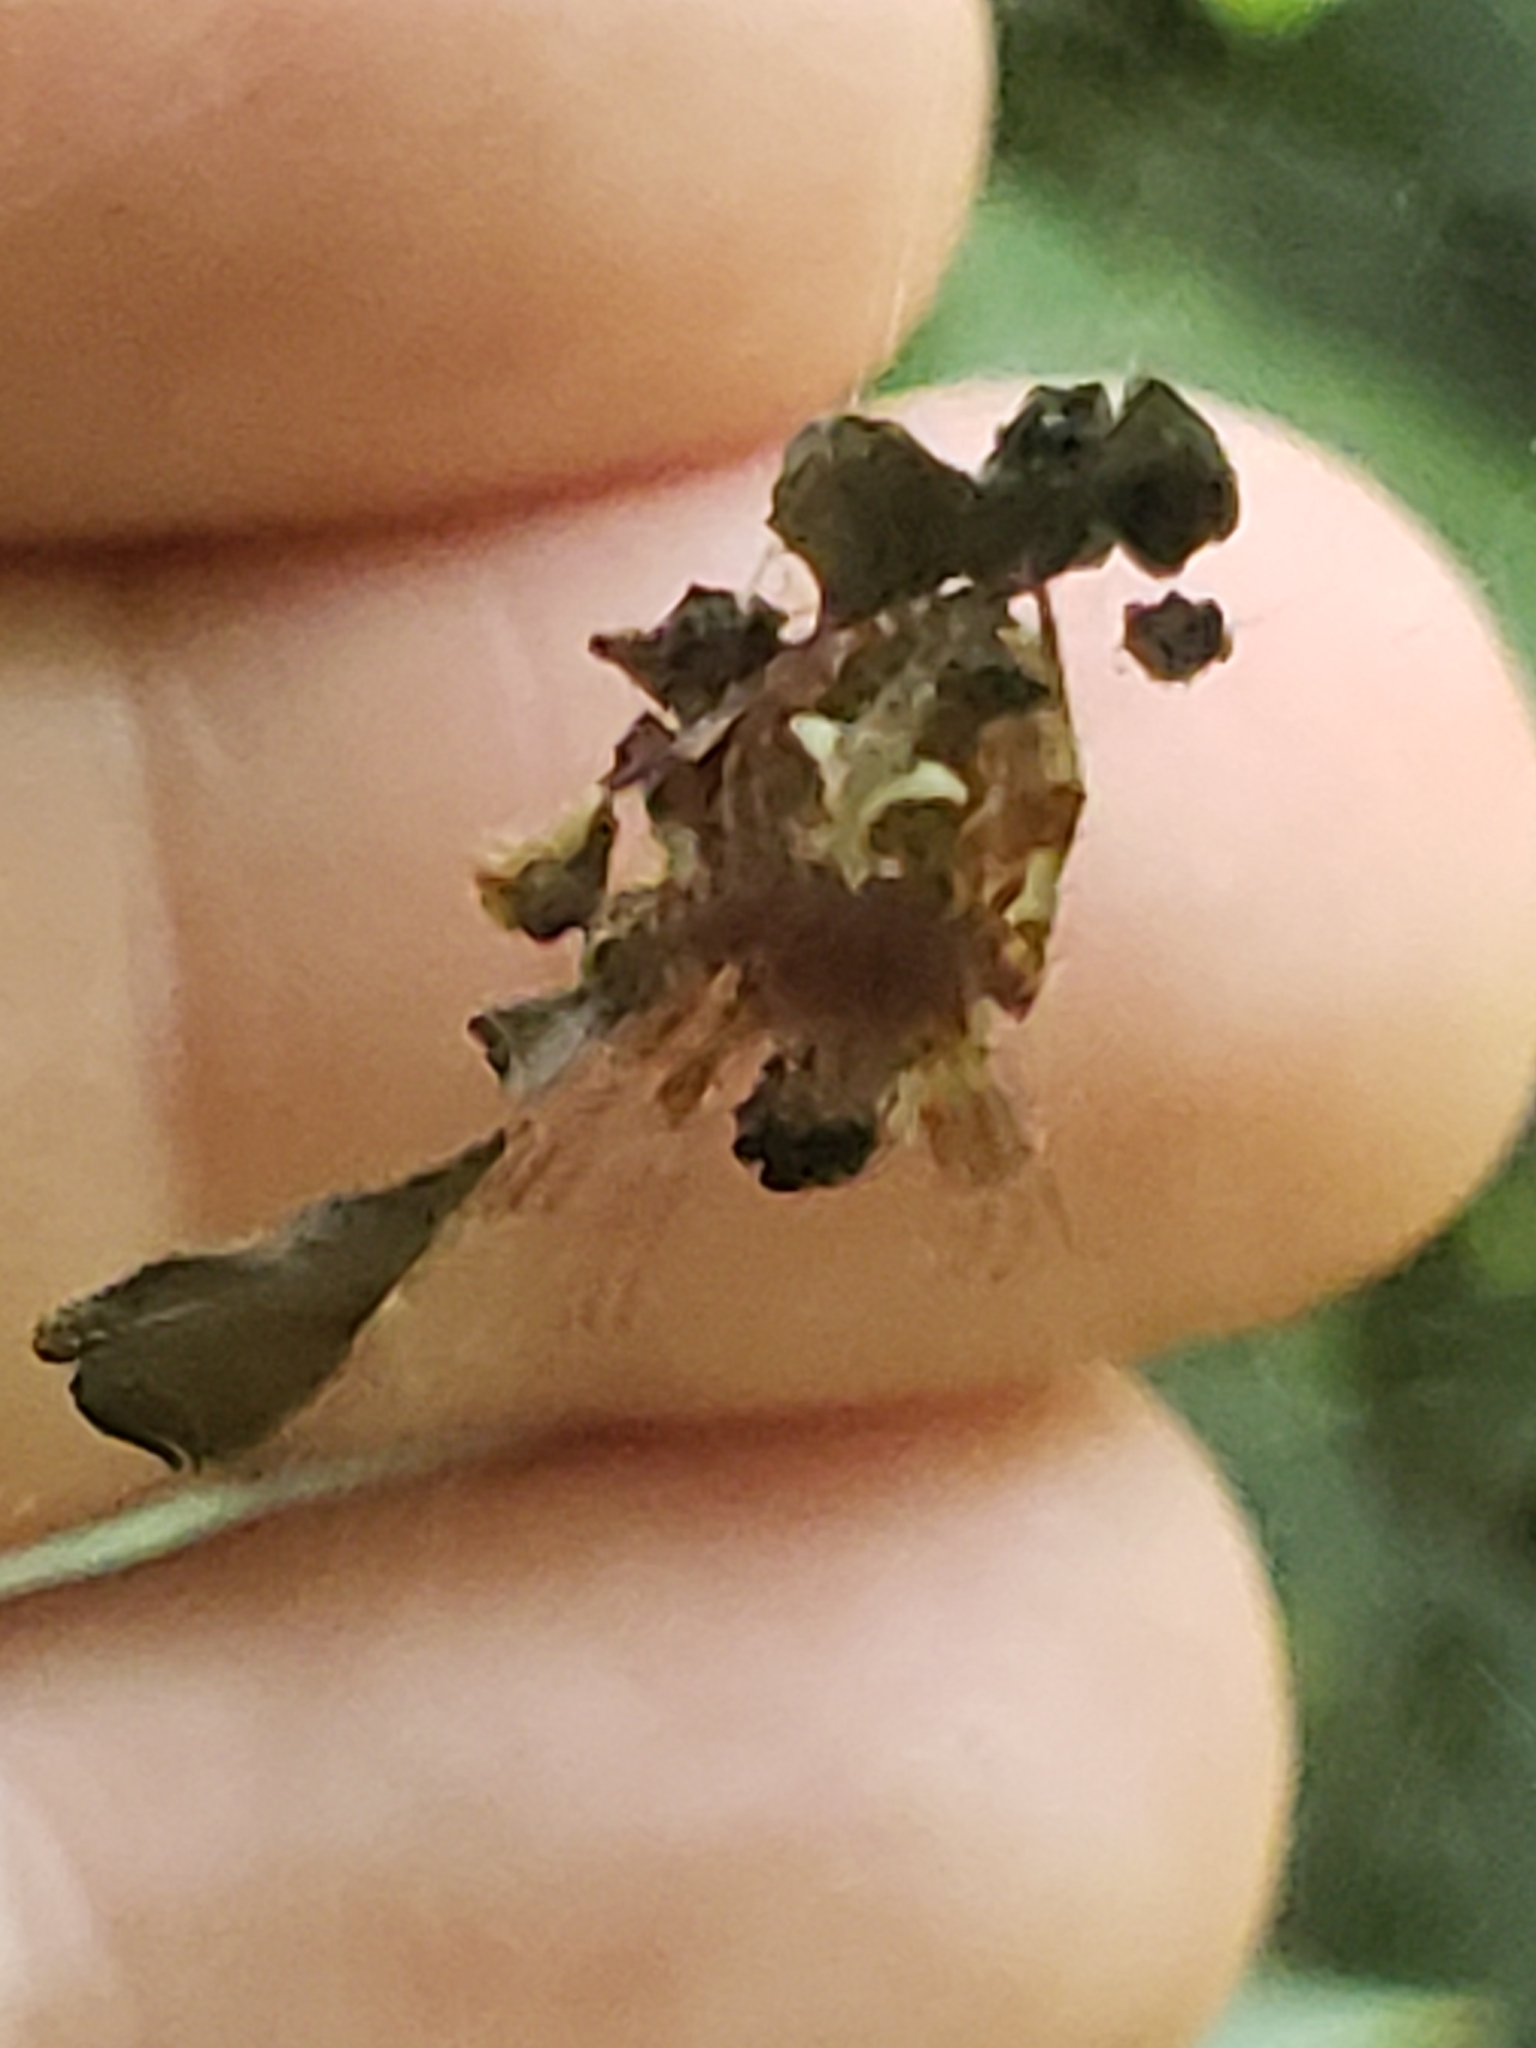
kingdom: Animalia
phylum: Arthropoda
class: Arachnida
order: Araneae
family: Araneidae
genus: Metepeira
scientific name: Metepeira labyrinthea
